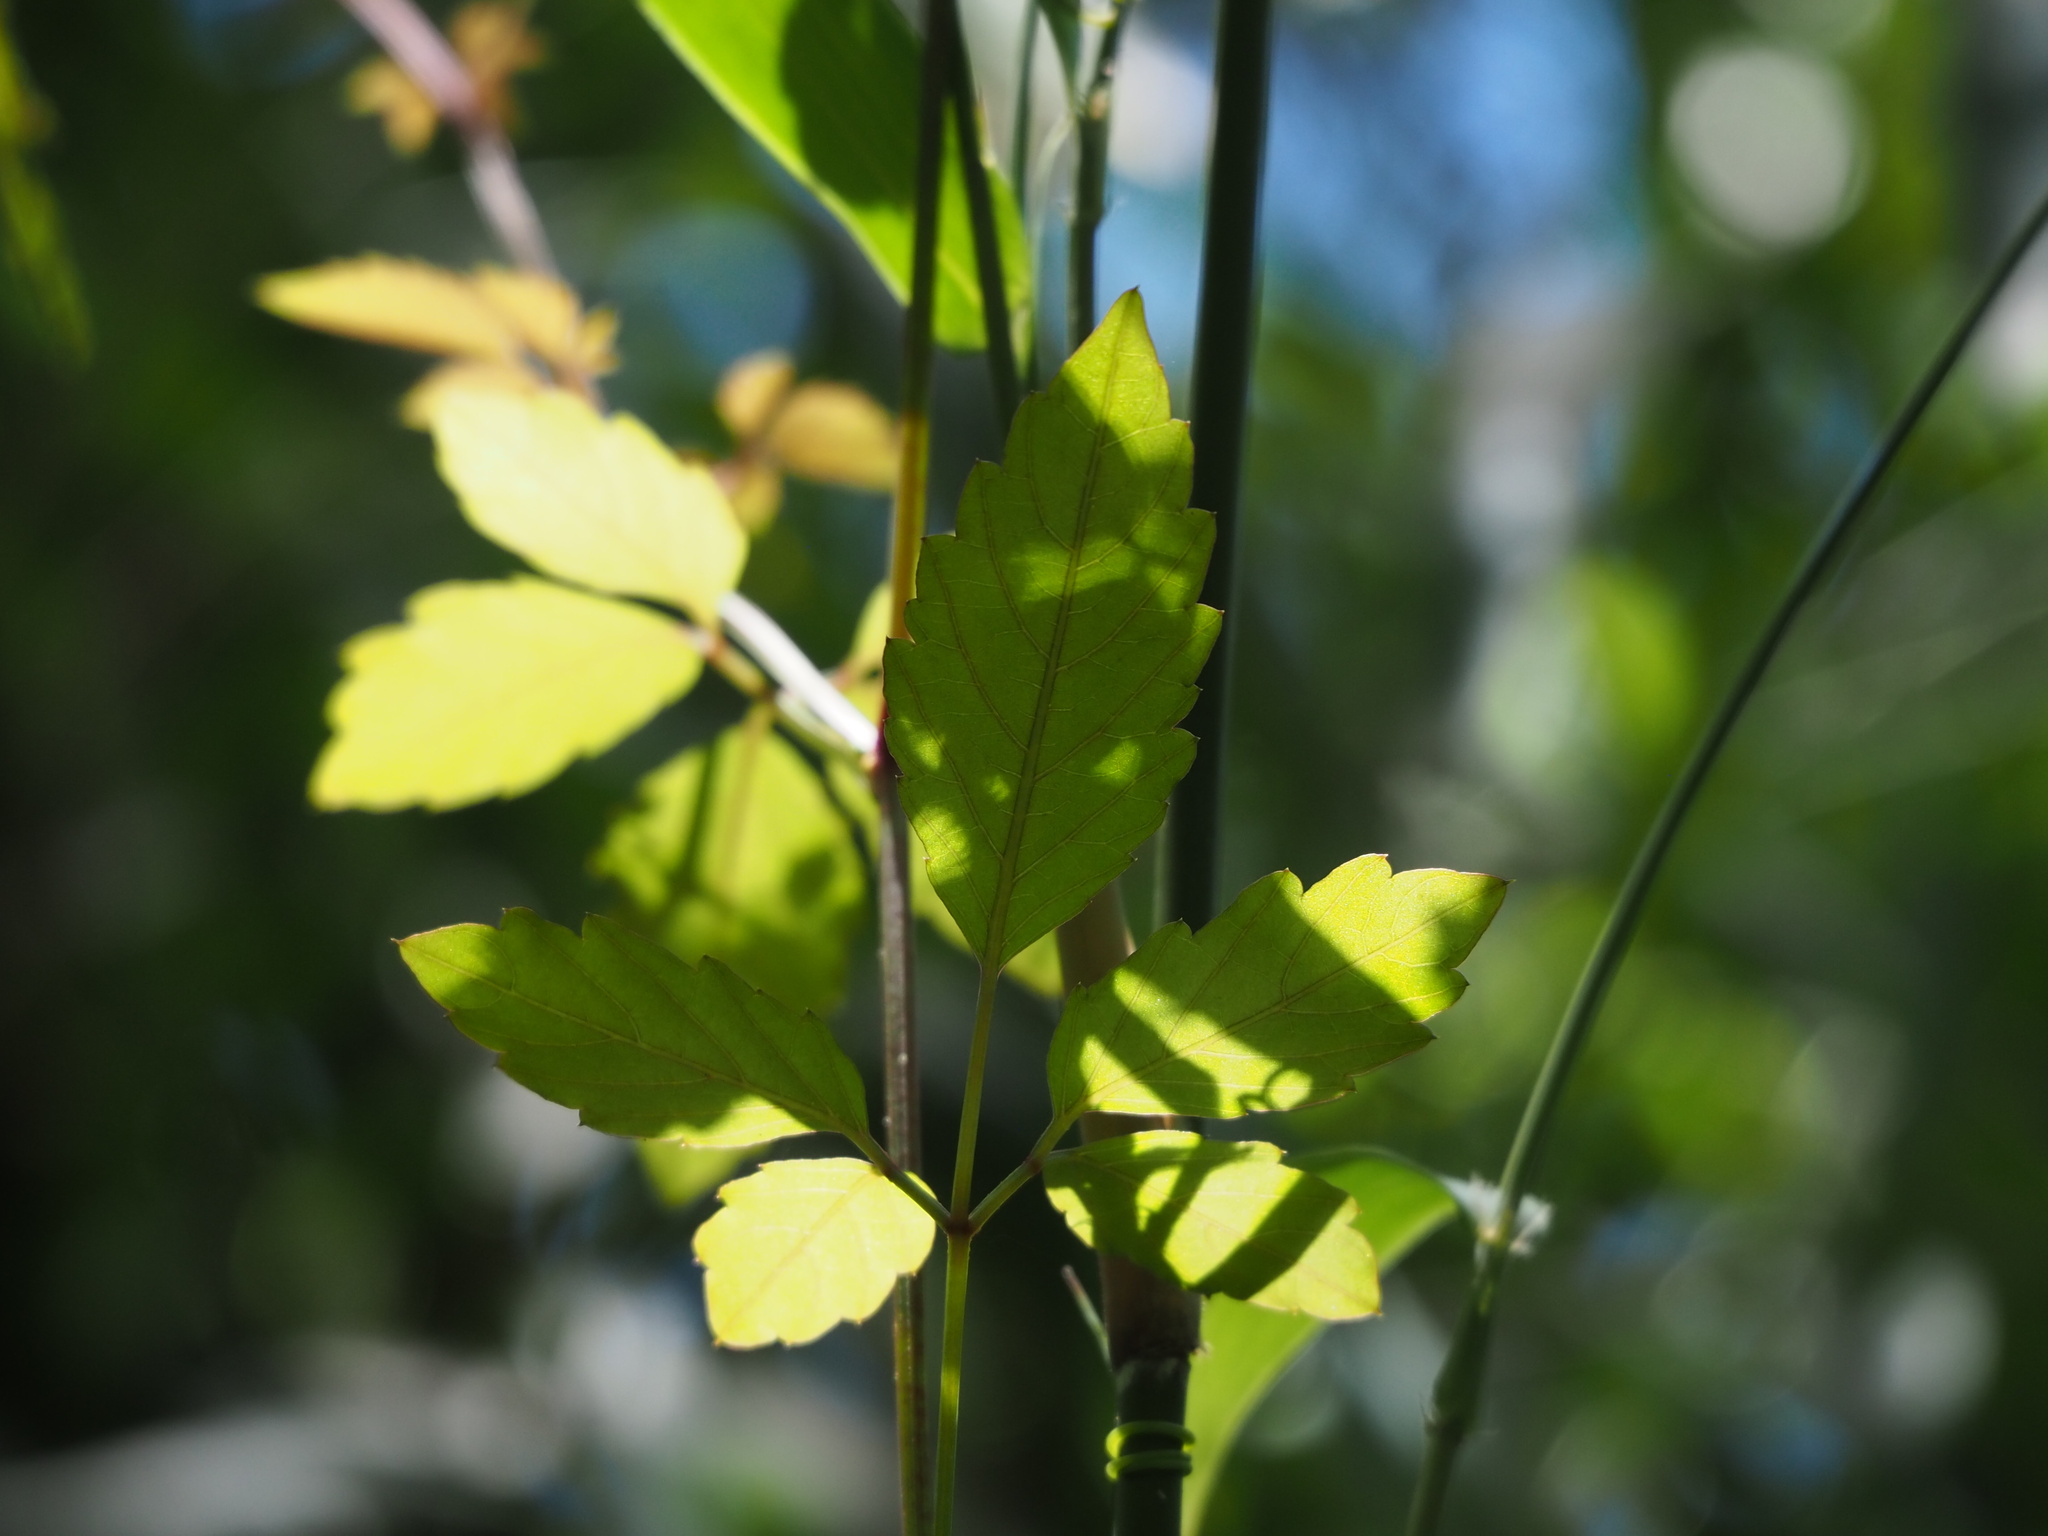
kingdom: Plantae
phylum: Tracheophyta
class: Magnoliopsida
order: Vitales
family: Vitaceae
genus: Causonis
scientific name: Causonis japonica
